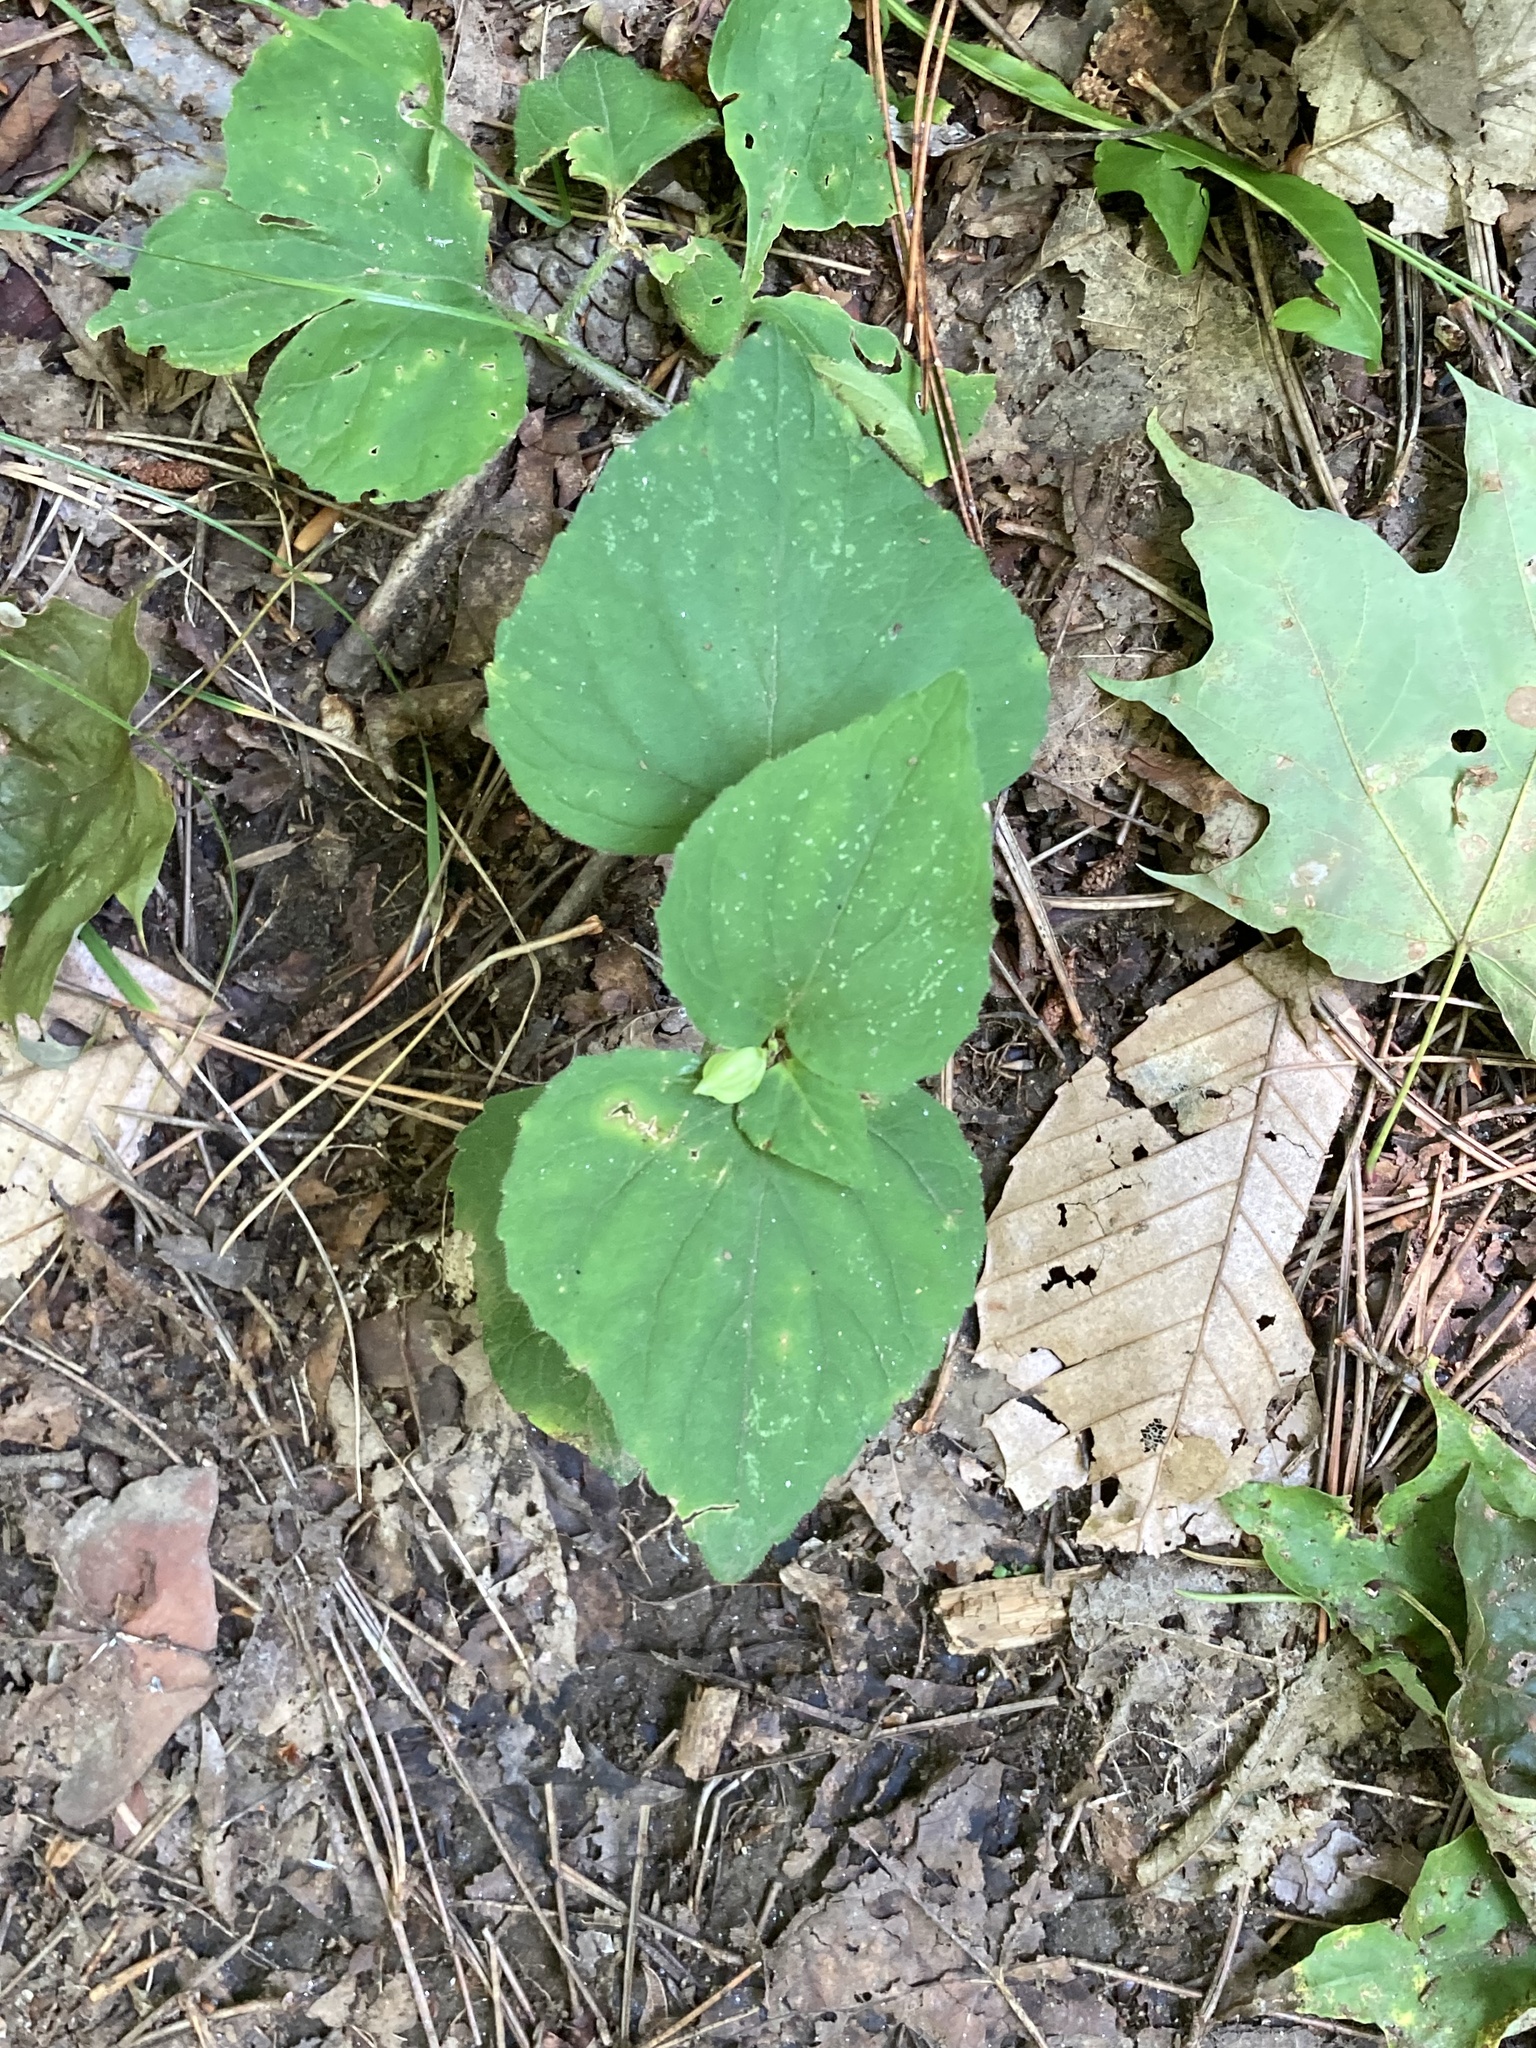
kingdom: Plantae
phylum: Tracheophyta
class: Magnoliopsida
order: Malpighiales
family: Violaceae
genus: Viola
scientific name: Viola eriocarpa
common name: Smooth yellow violet
